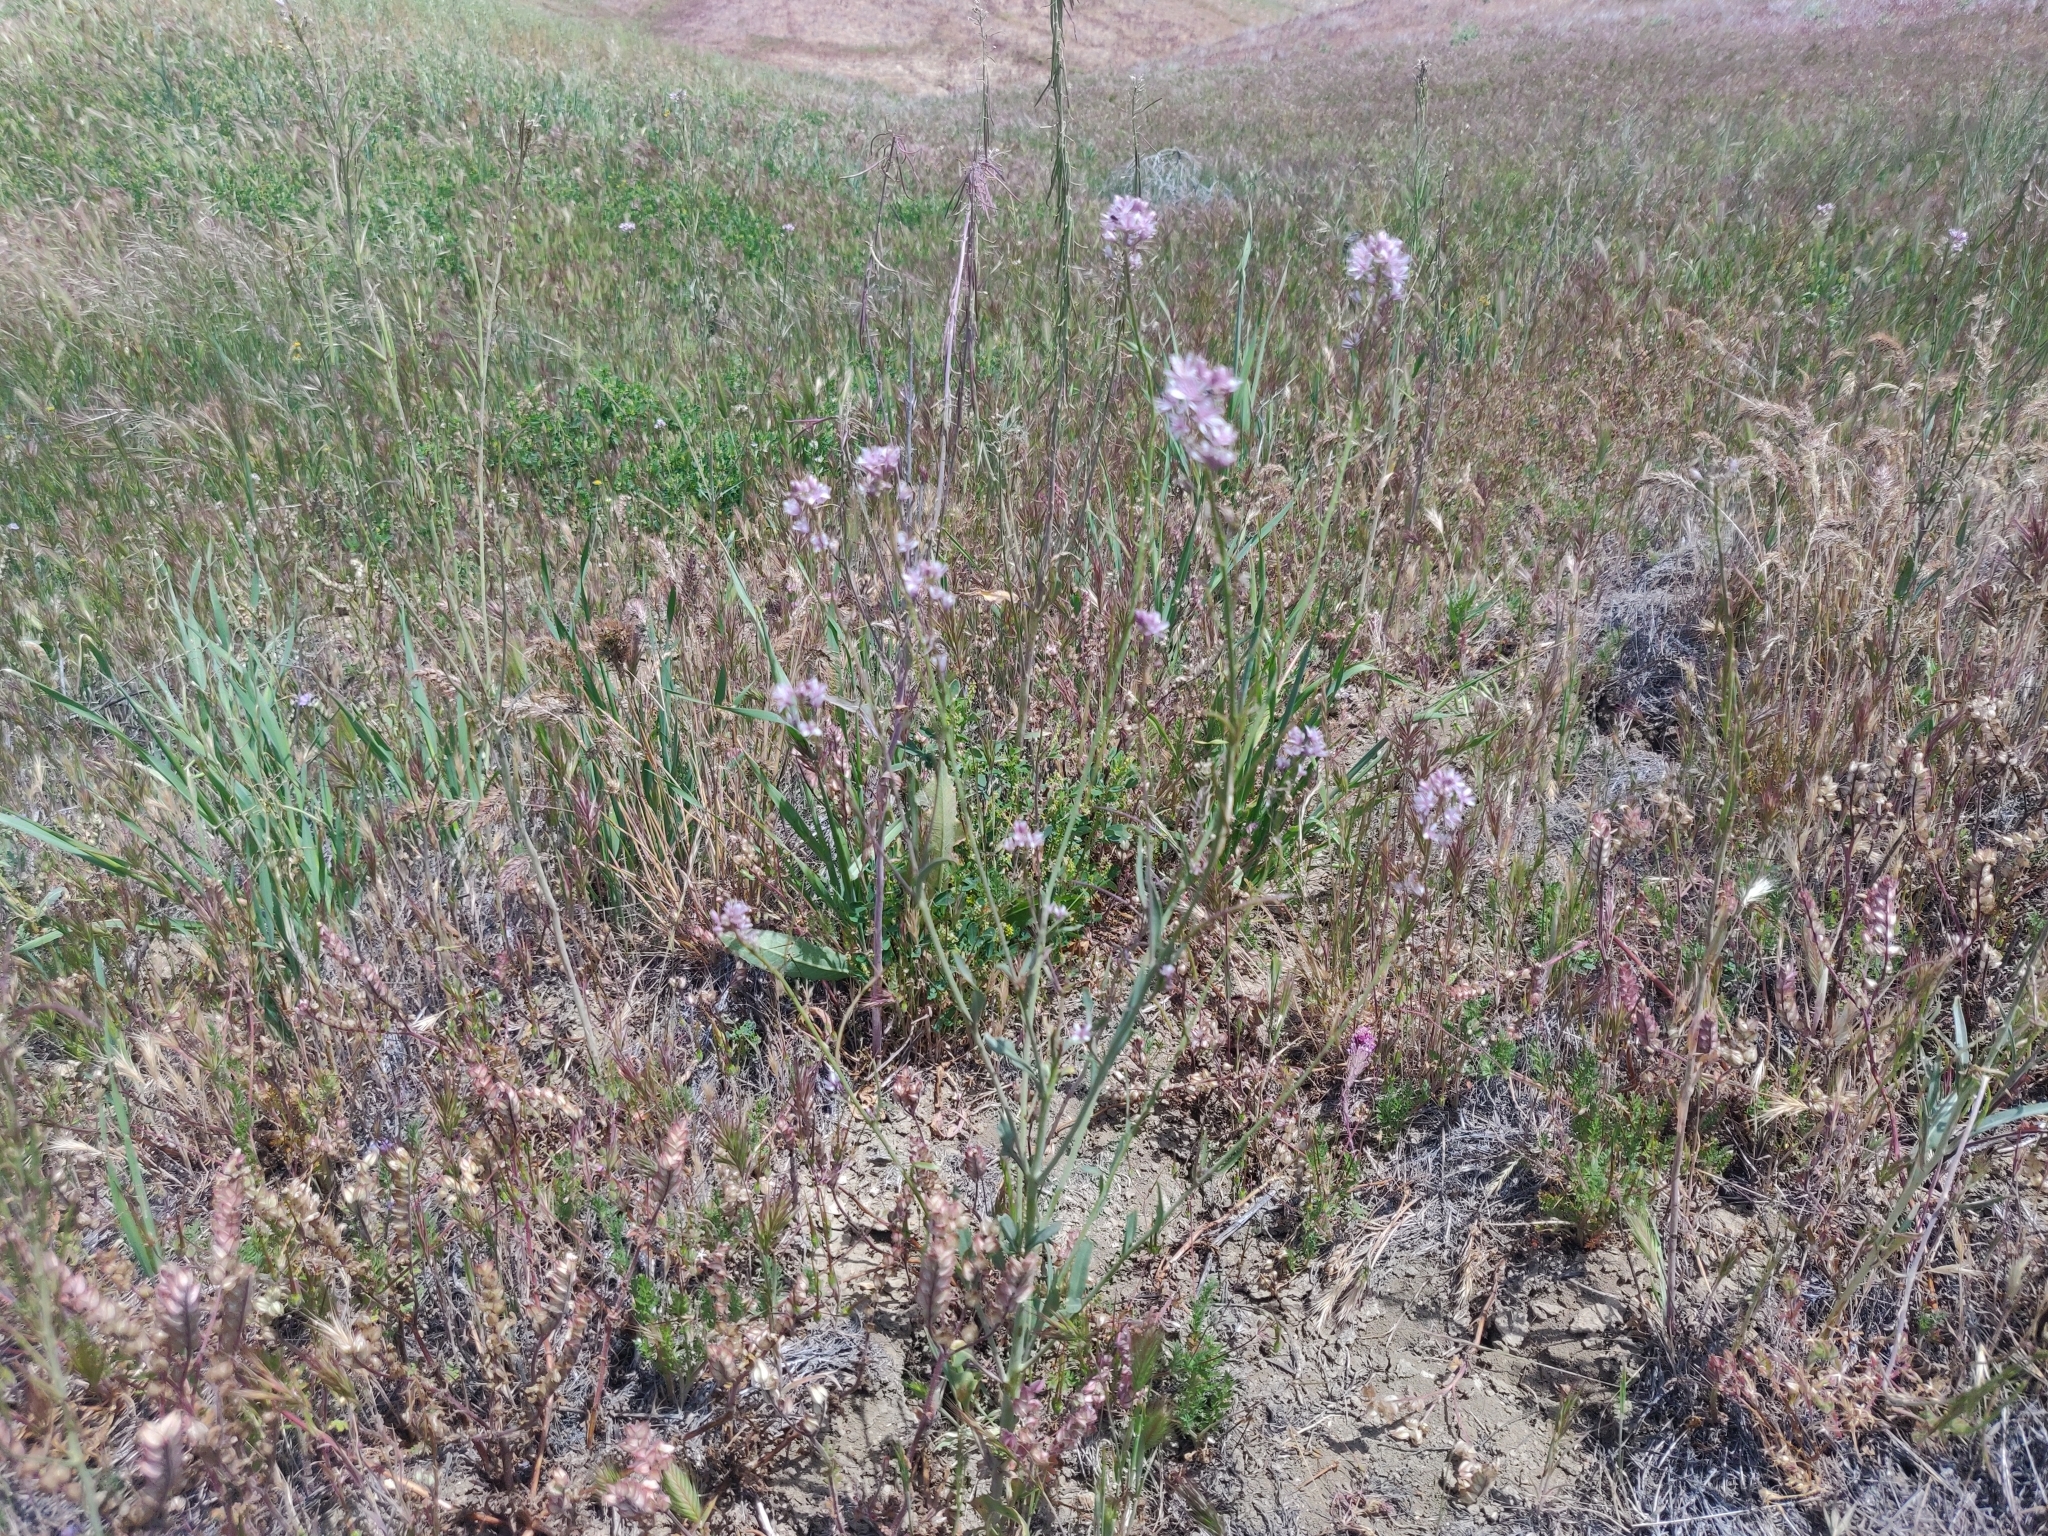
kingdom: Plantae
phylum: Tracheophyta
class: Magnoliopsida
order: Brassicales
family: Brassicaceae
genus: Streptanthus
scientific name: Streptanthus anceps
